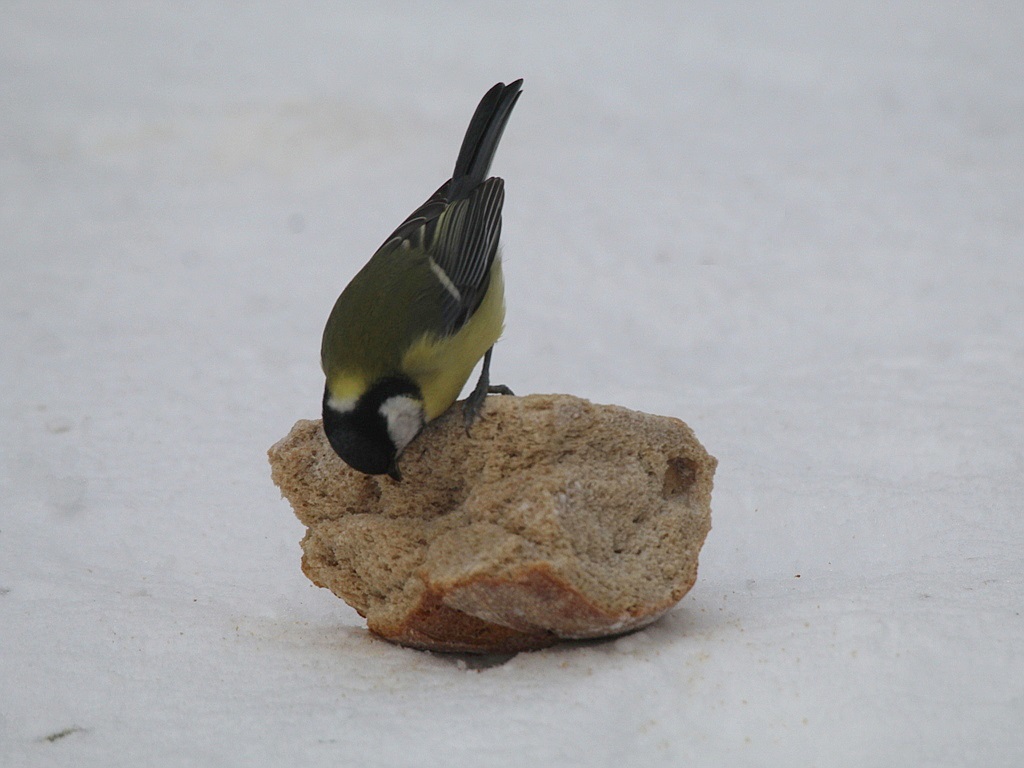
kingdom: Animalia
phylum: Chordata
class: Aves
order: Passeriformes
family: Paridae
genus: Parus
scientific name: Parus major
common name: Great tit
